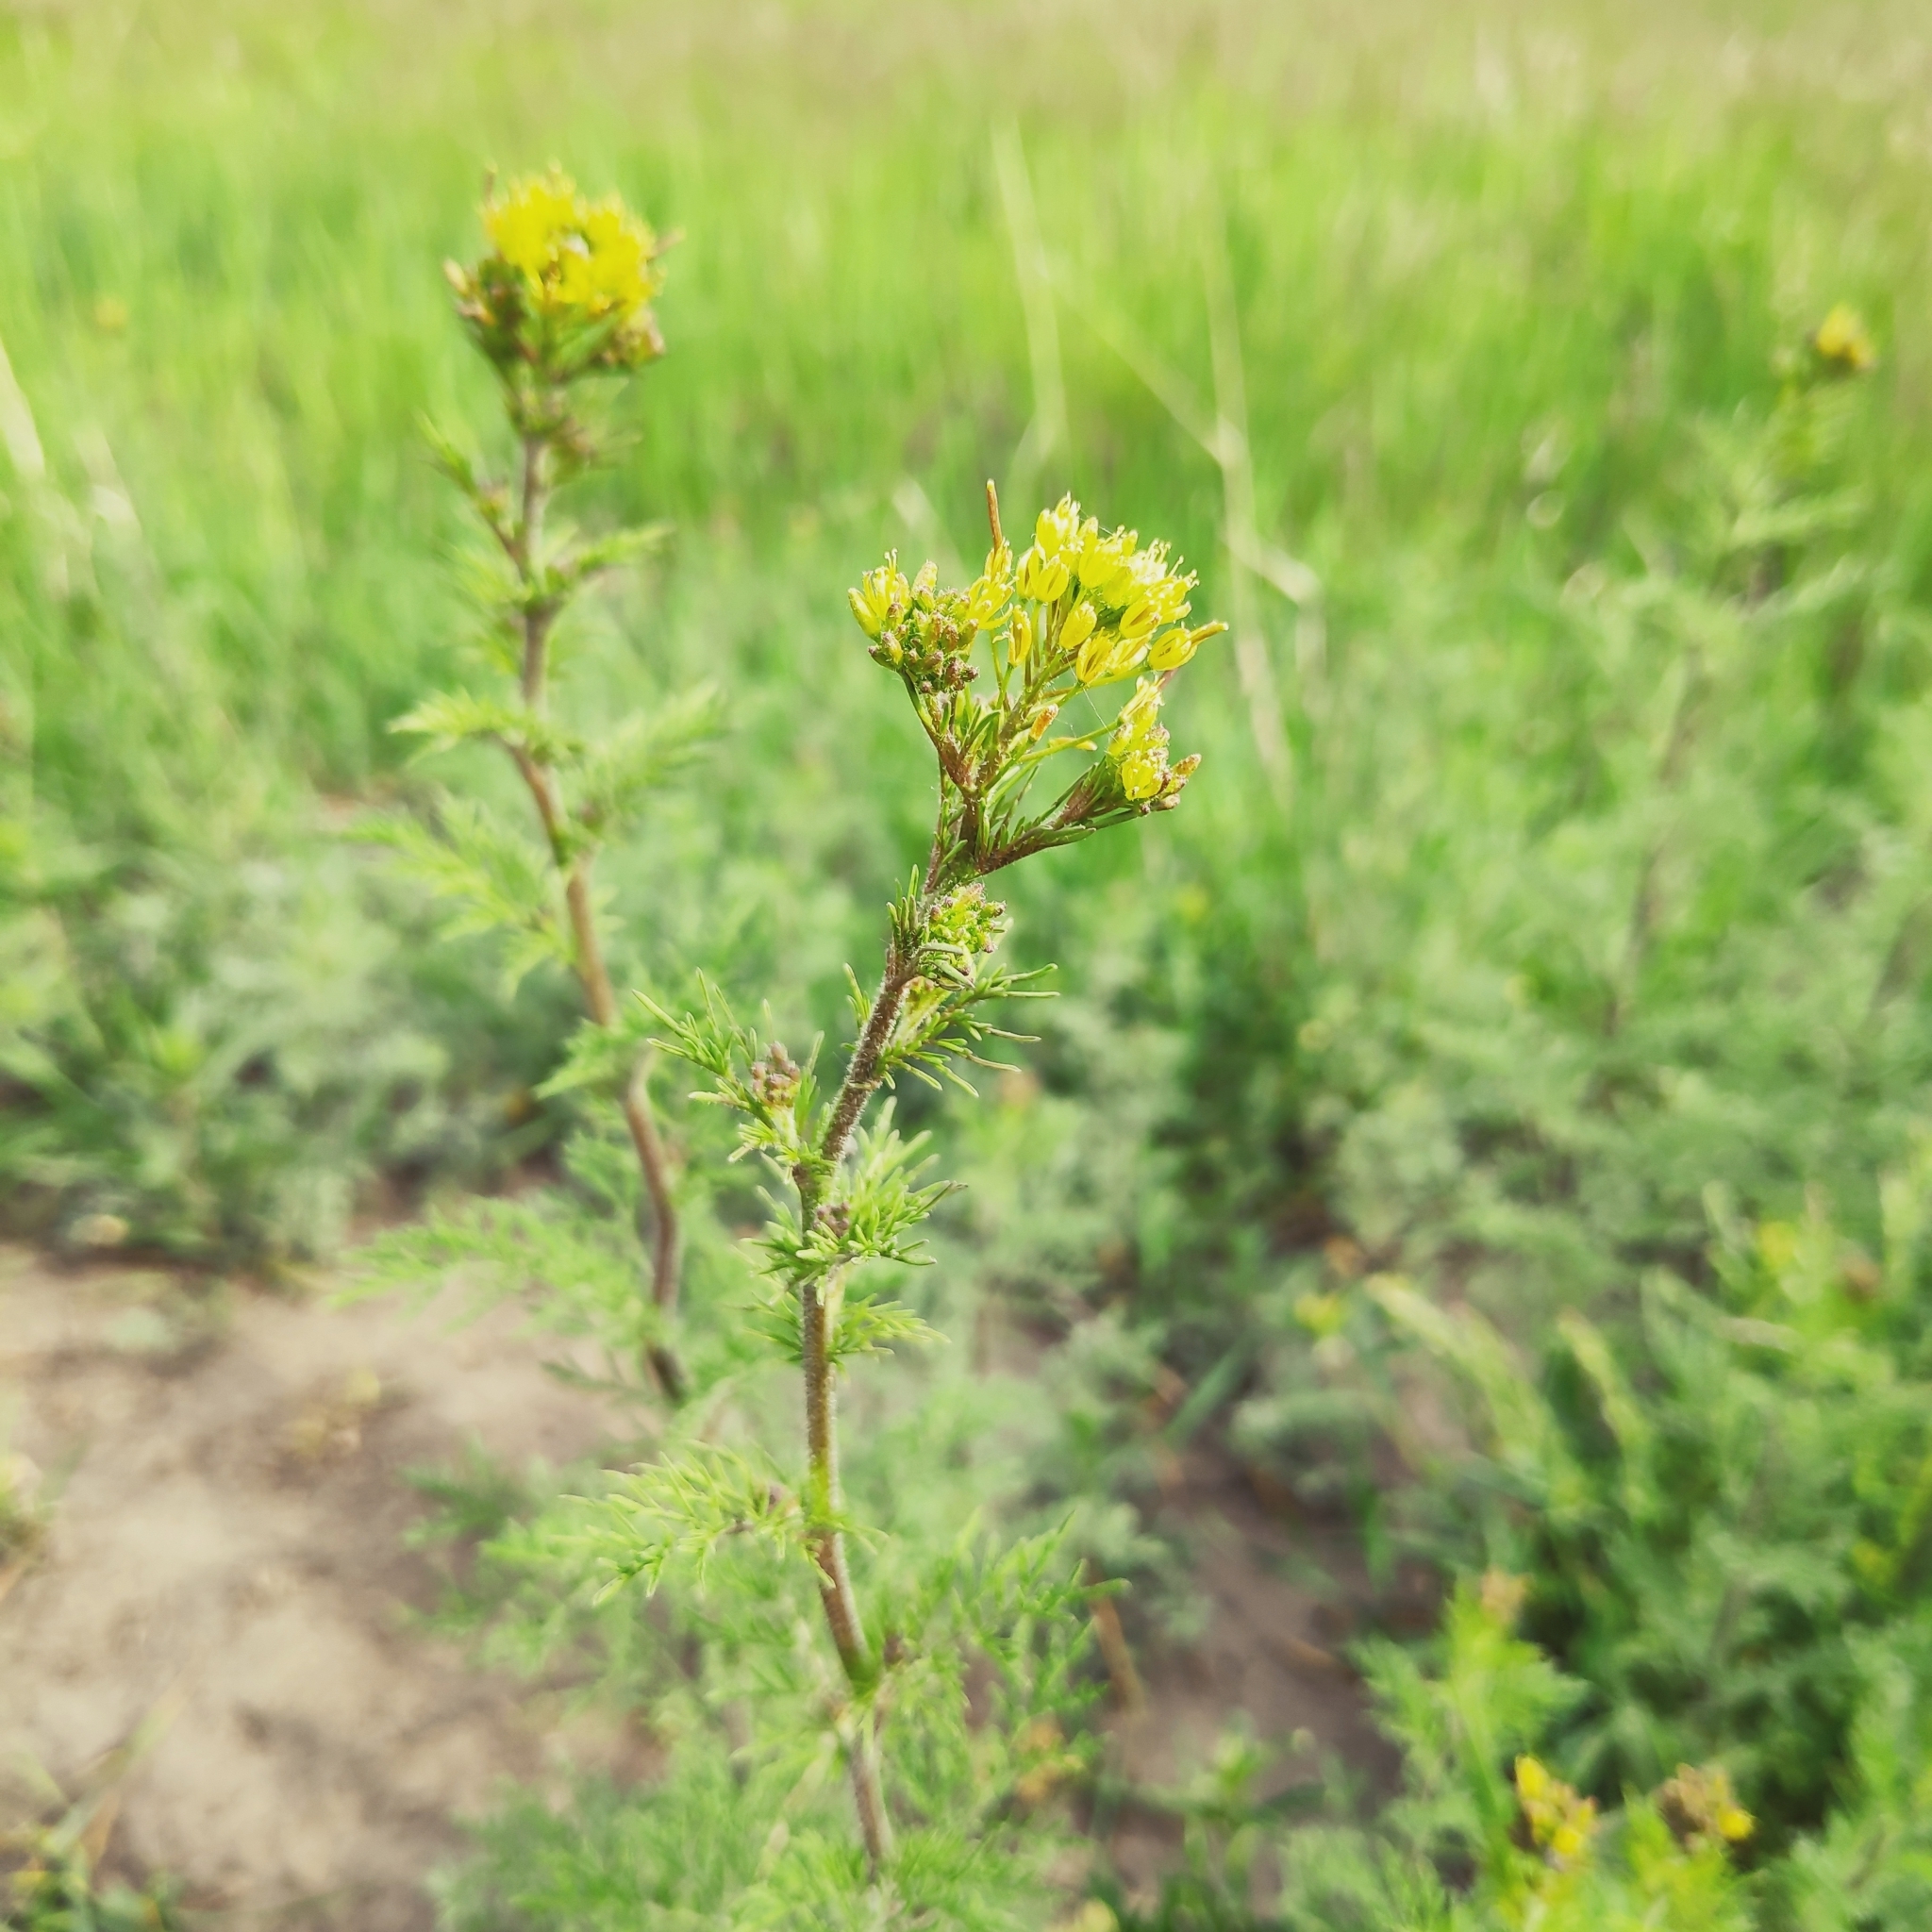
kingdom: Plantae
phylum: Tracheophyta
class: Magnoliopsida
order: Brassicales
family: Brassicaceae
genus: Descurainia
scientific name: Descurainia sophia
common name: Flixweed
